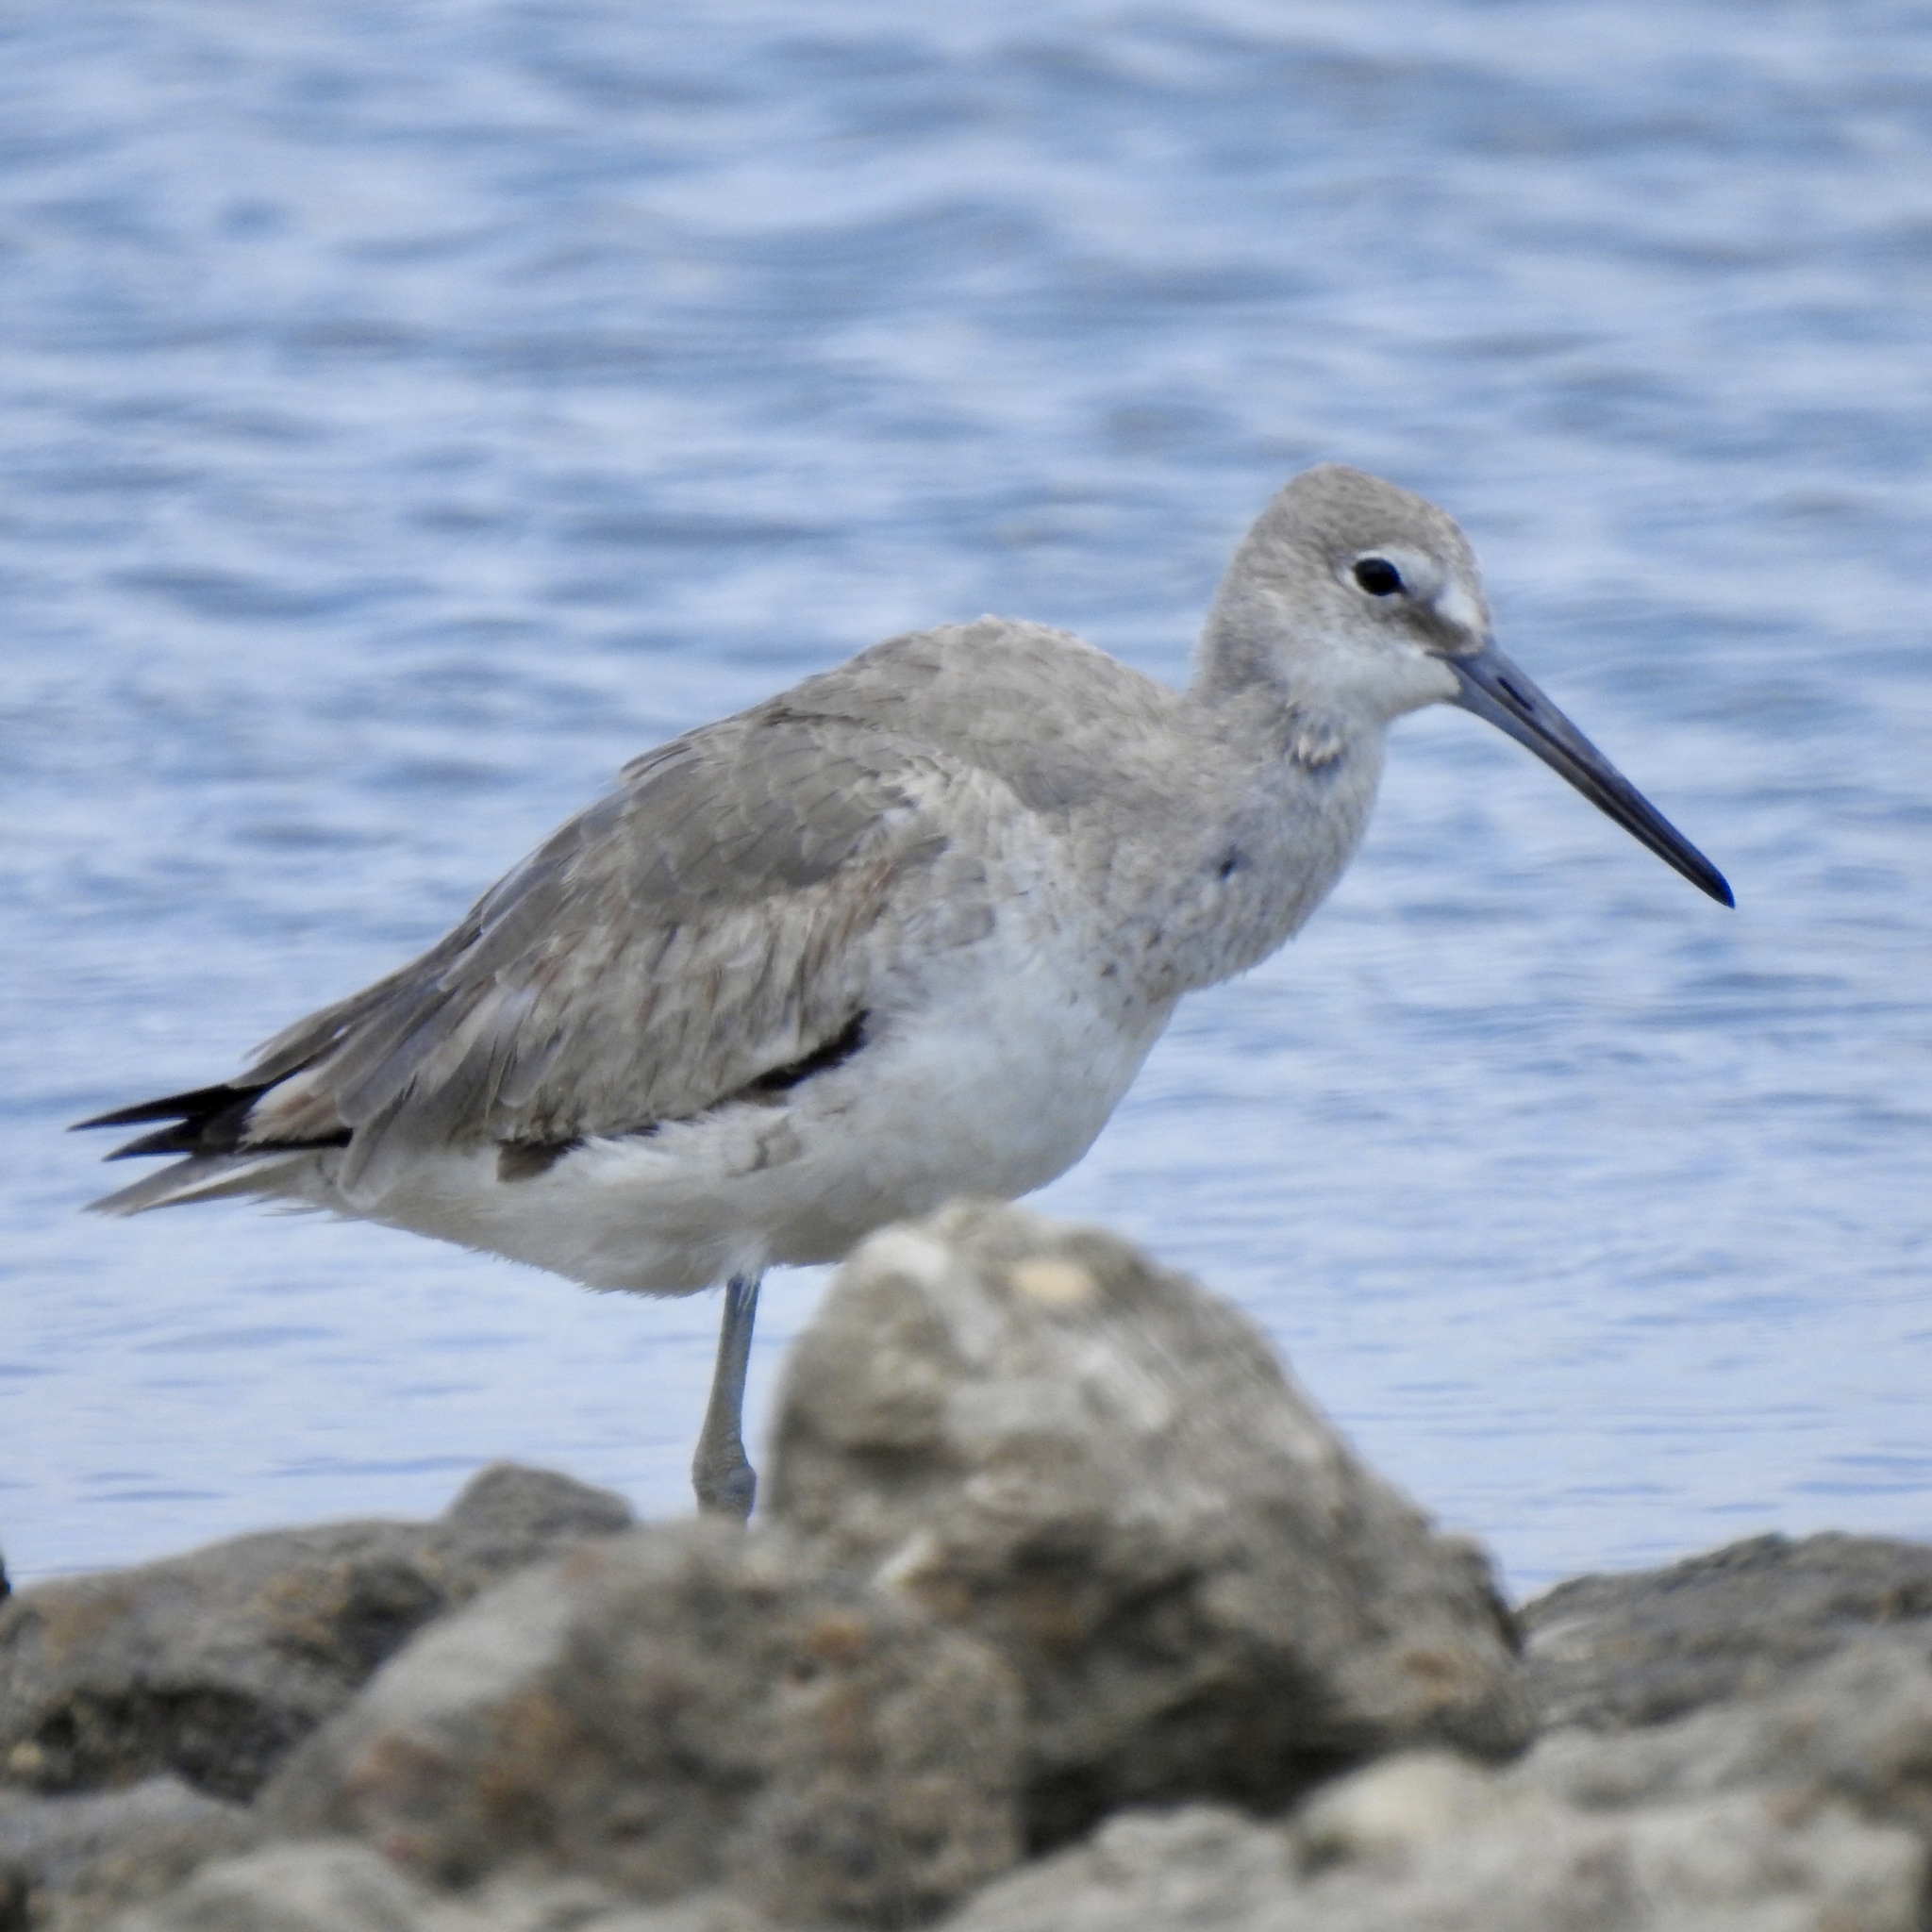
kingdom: Animalia
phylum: Chordata
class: Aves
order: Charadriiformes
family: Scolopacidae
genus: Tringa
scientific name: Tringa semipalmata
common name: Willet
